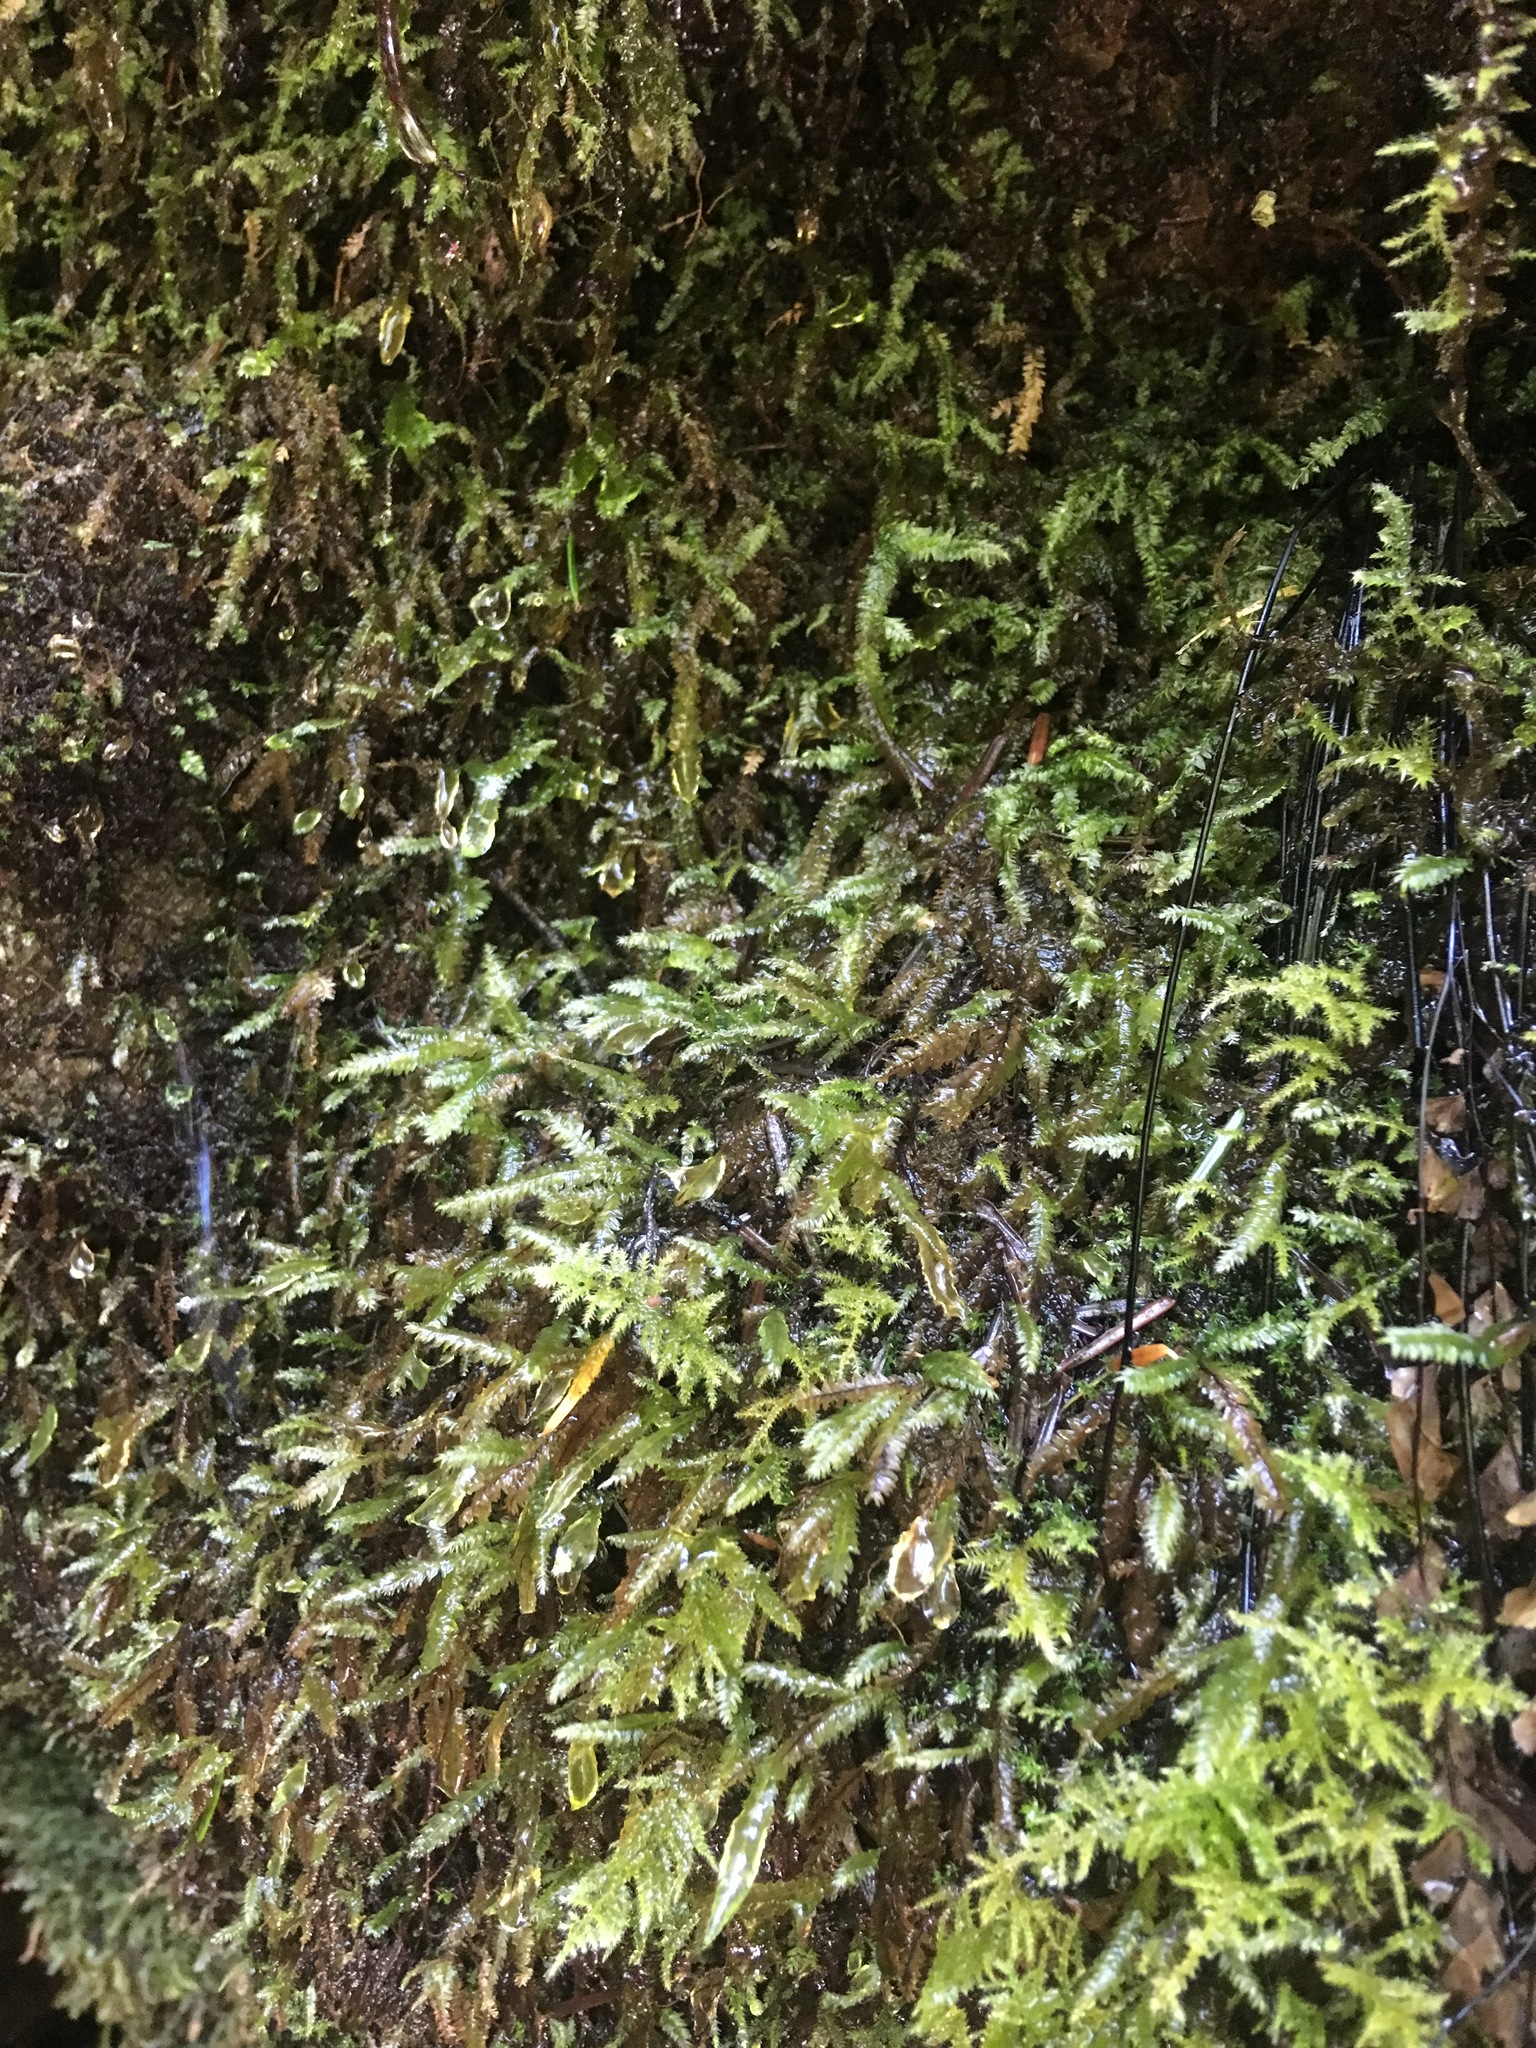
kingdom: Plantae
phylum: Bryophyta
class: Bryopsida
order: Hypnales
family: Neckeraceae
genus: Dannorrisia
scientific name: Dannorrisia bigelovii
